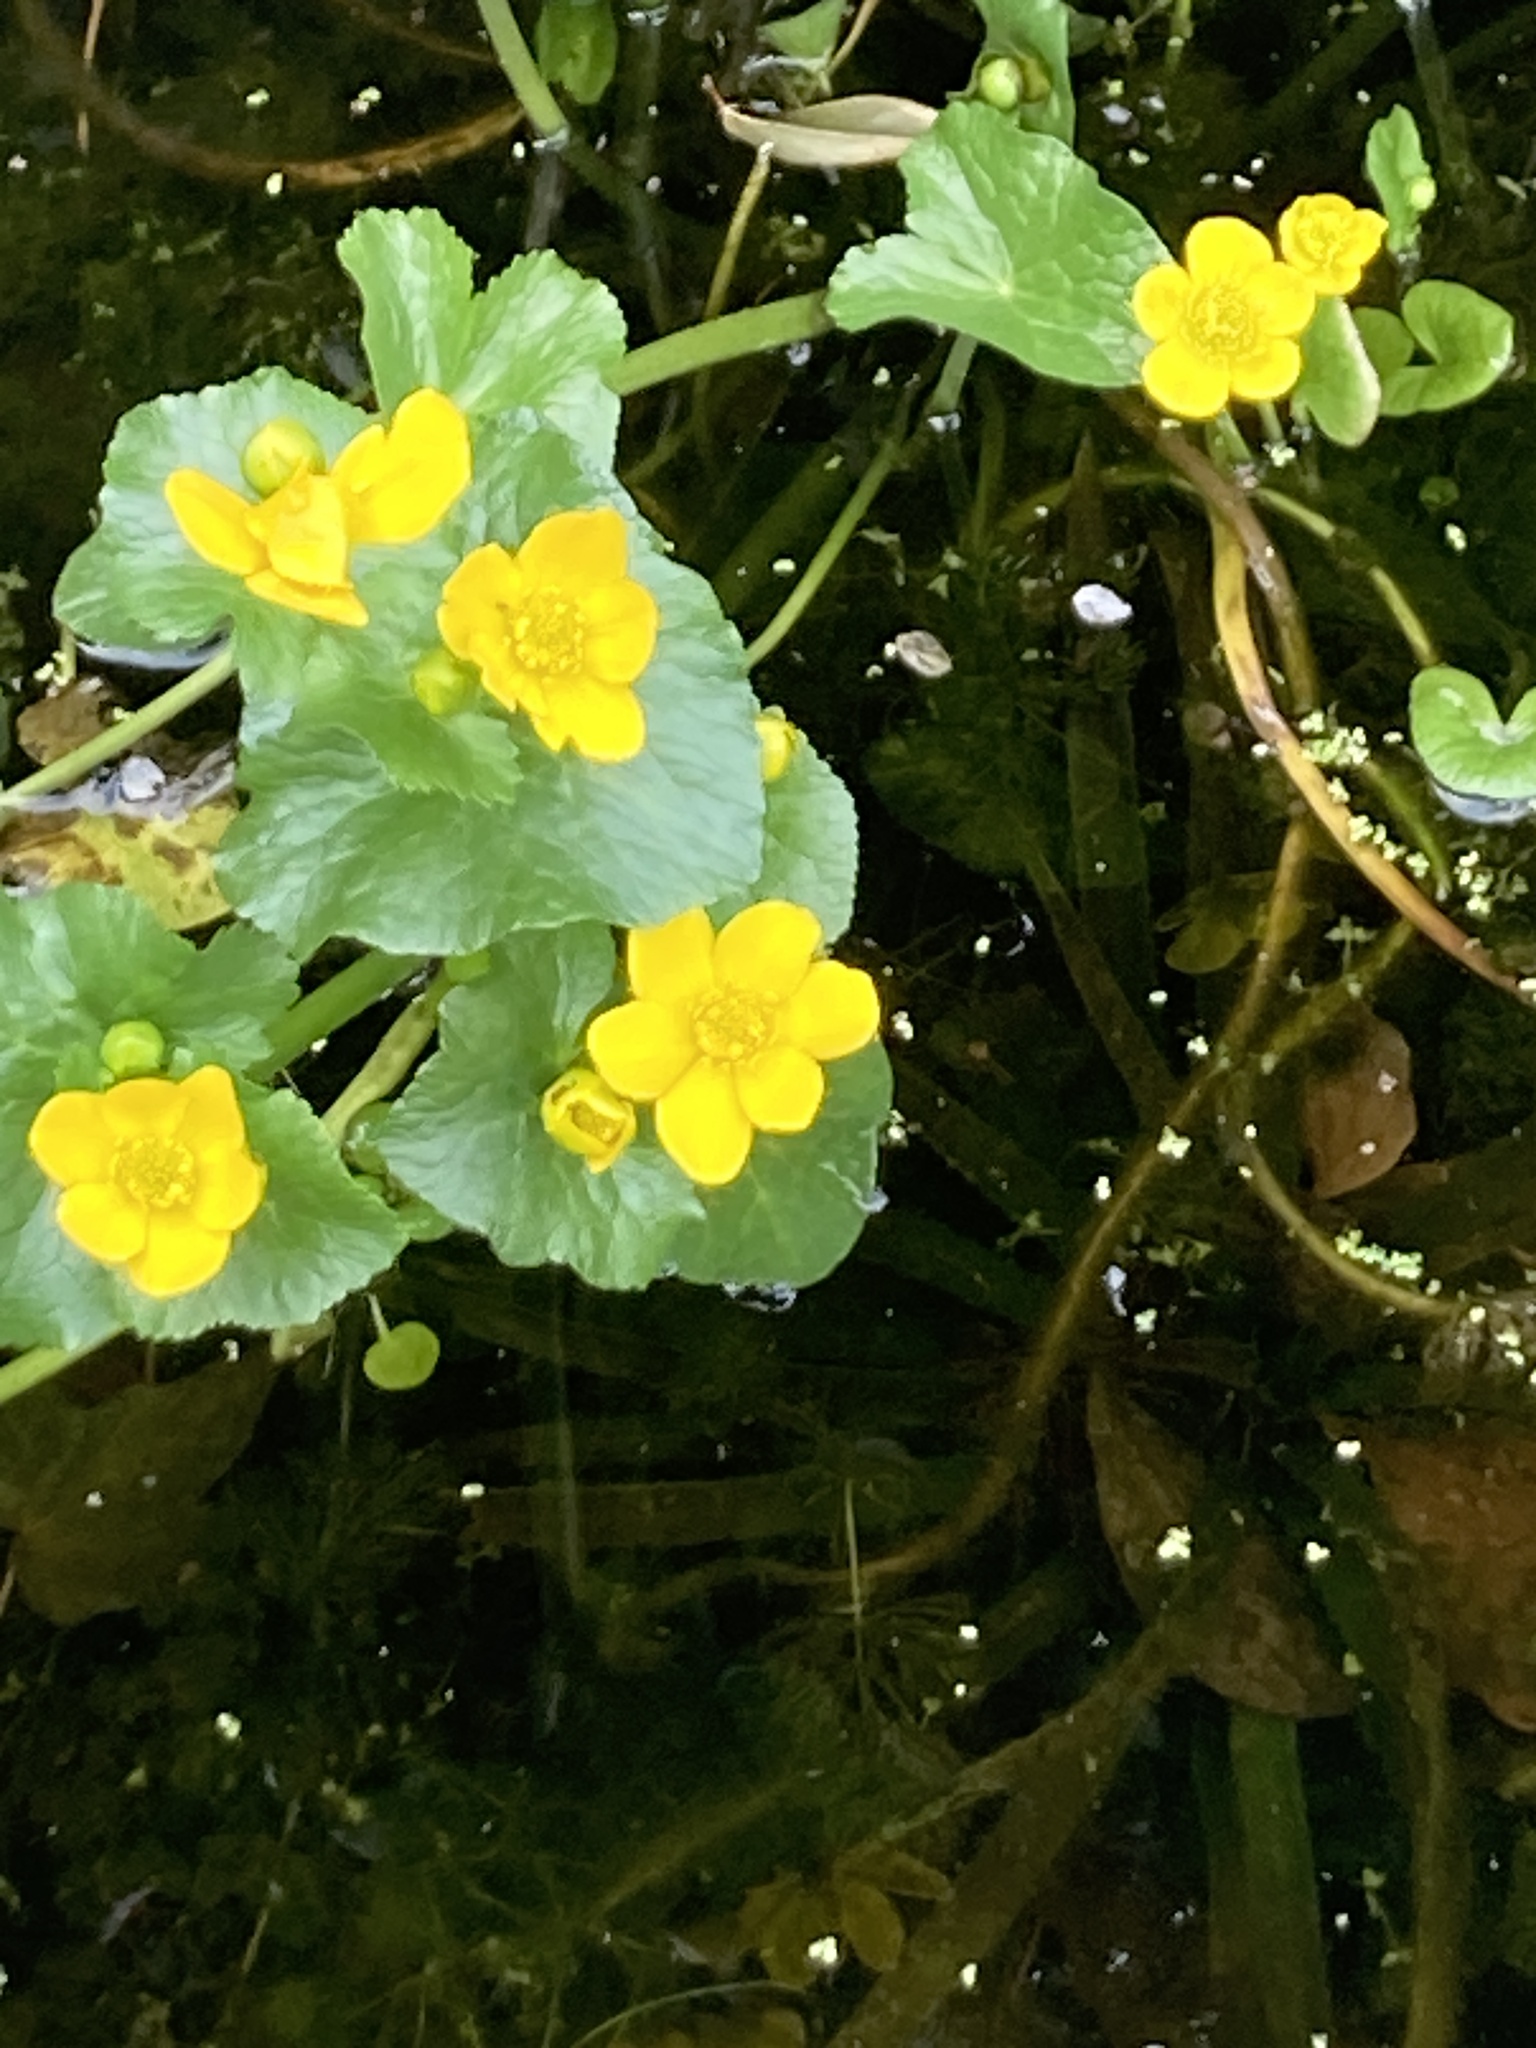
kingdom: Plantae
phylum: Tracheophyta
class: Magnoliopsida
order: Ranunculales
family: Ranunculaceae
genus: Caltha
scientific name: Caltha palustris
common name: Marsh marigold
